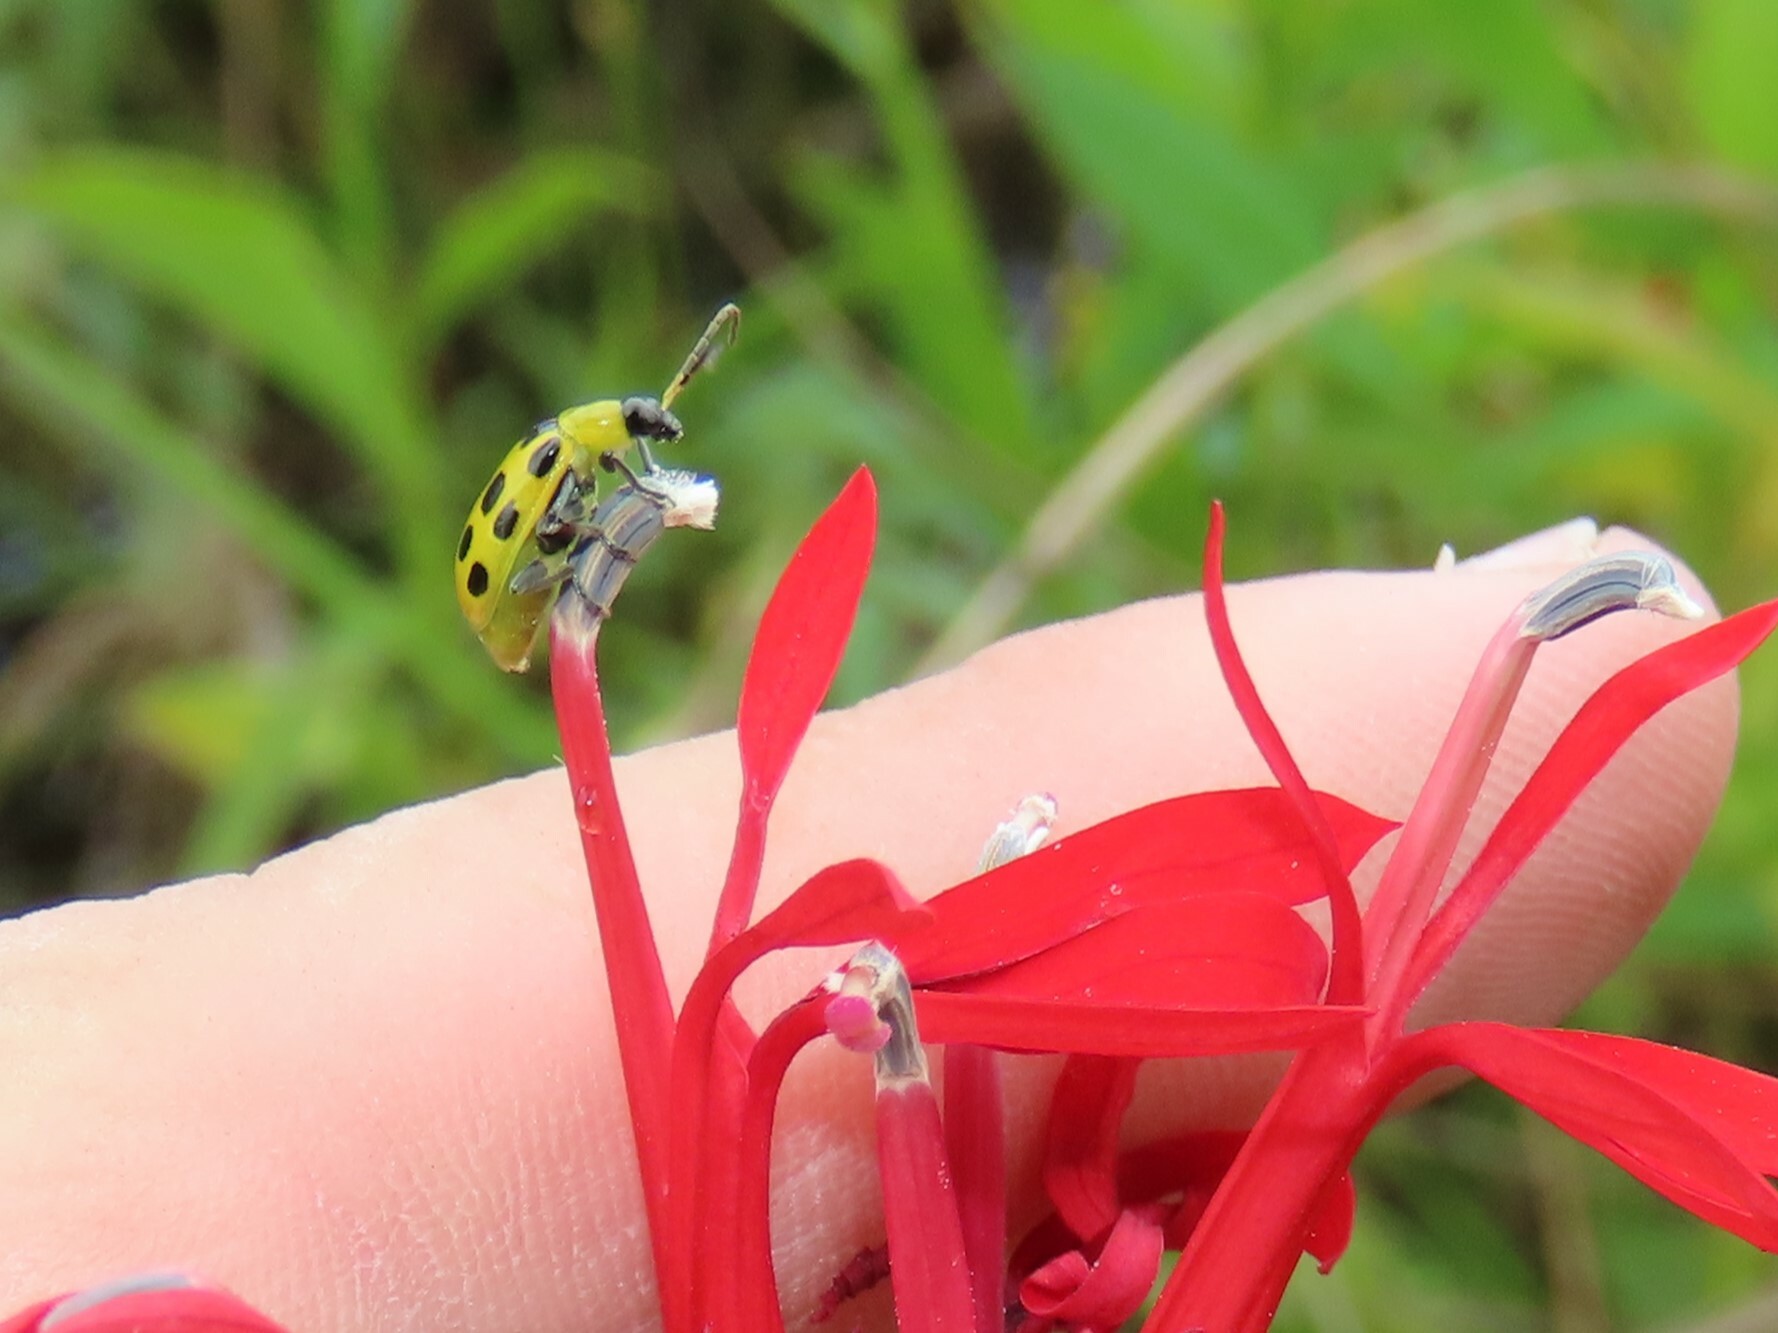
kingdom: Animalia
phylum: Arthropoda
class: Insecta
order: Coleoptera
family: Chrysomelidae
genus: Diabrotica
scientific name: Diabrotica undecimpunctata
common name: Spotted cucumber beetle
